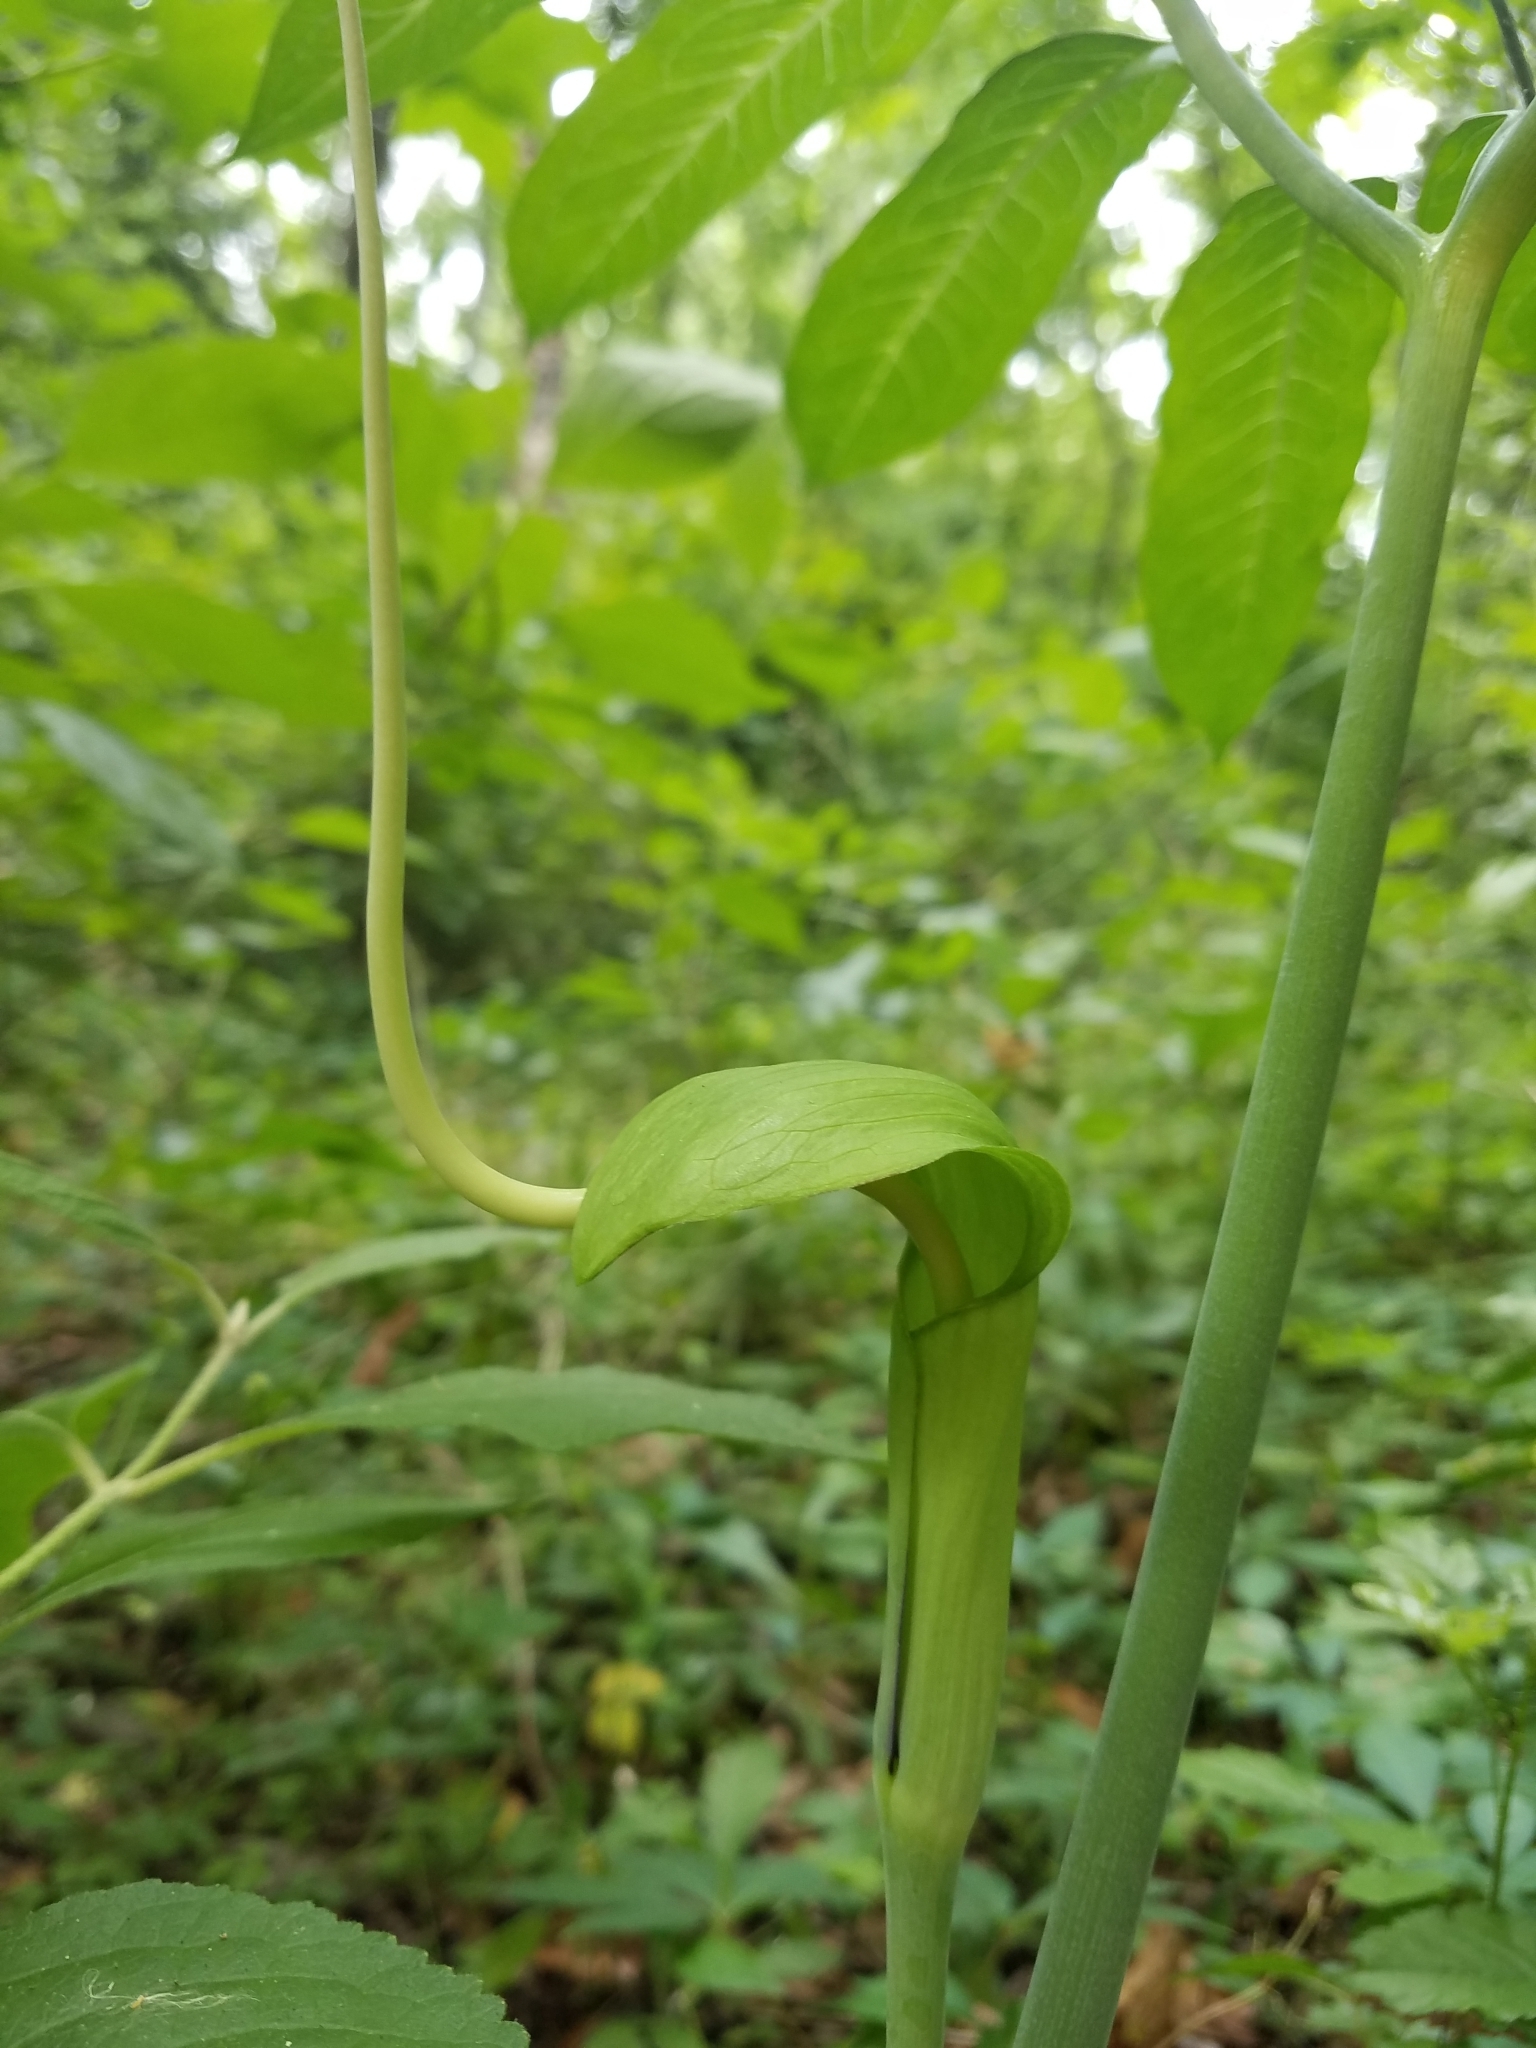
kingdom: Plantae
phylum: Tracheophyta
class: Liliopsida
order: Alismatales
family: Araceae
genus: Arisaema
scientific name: Arisaema dracontium
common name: Dragon-arum
